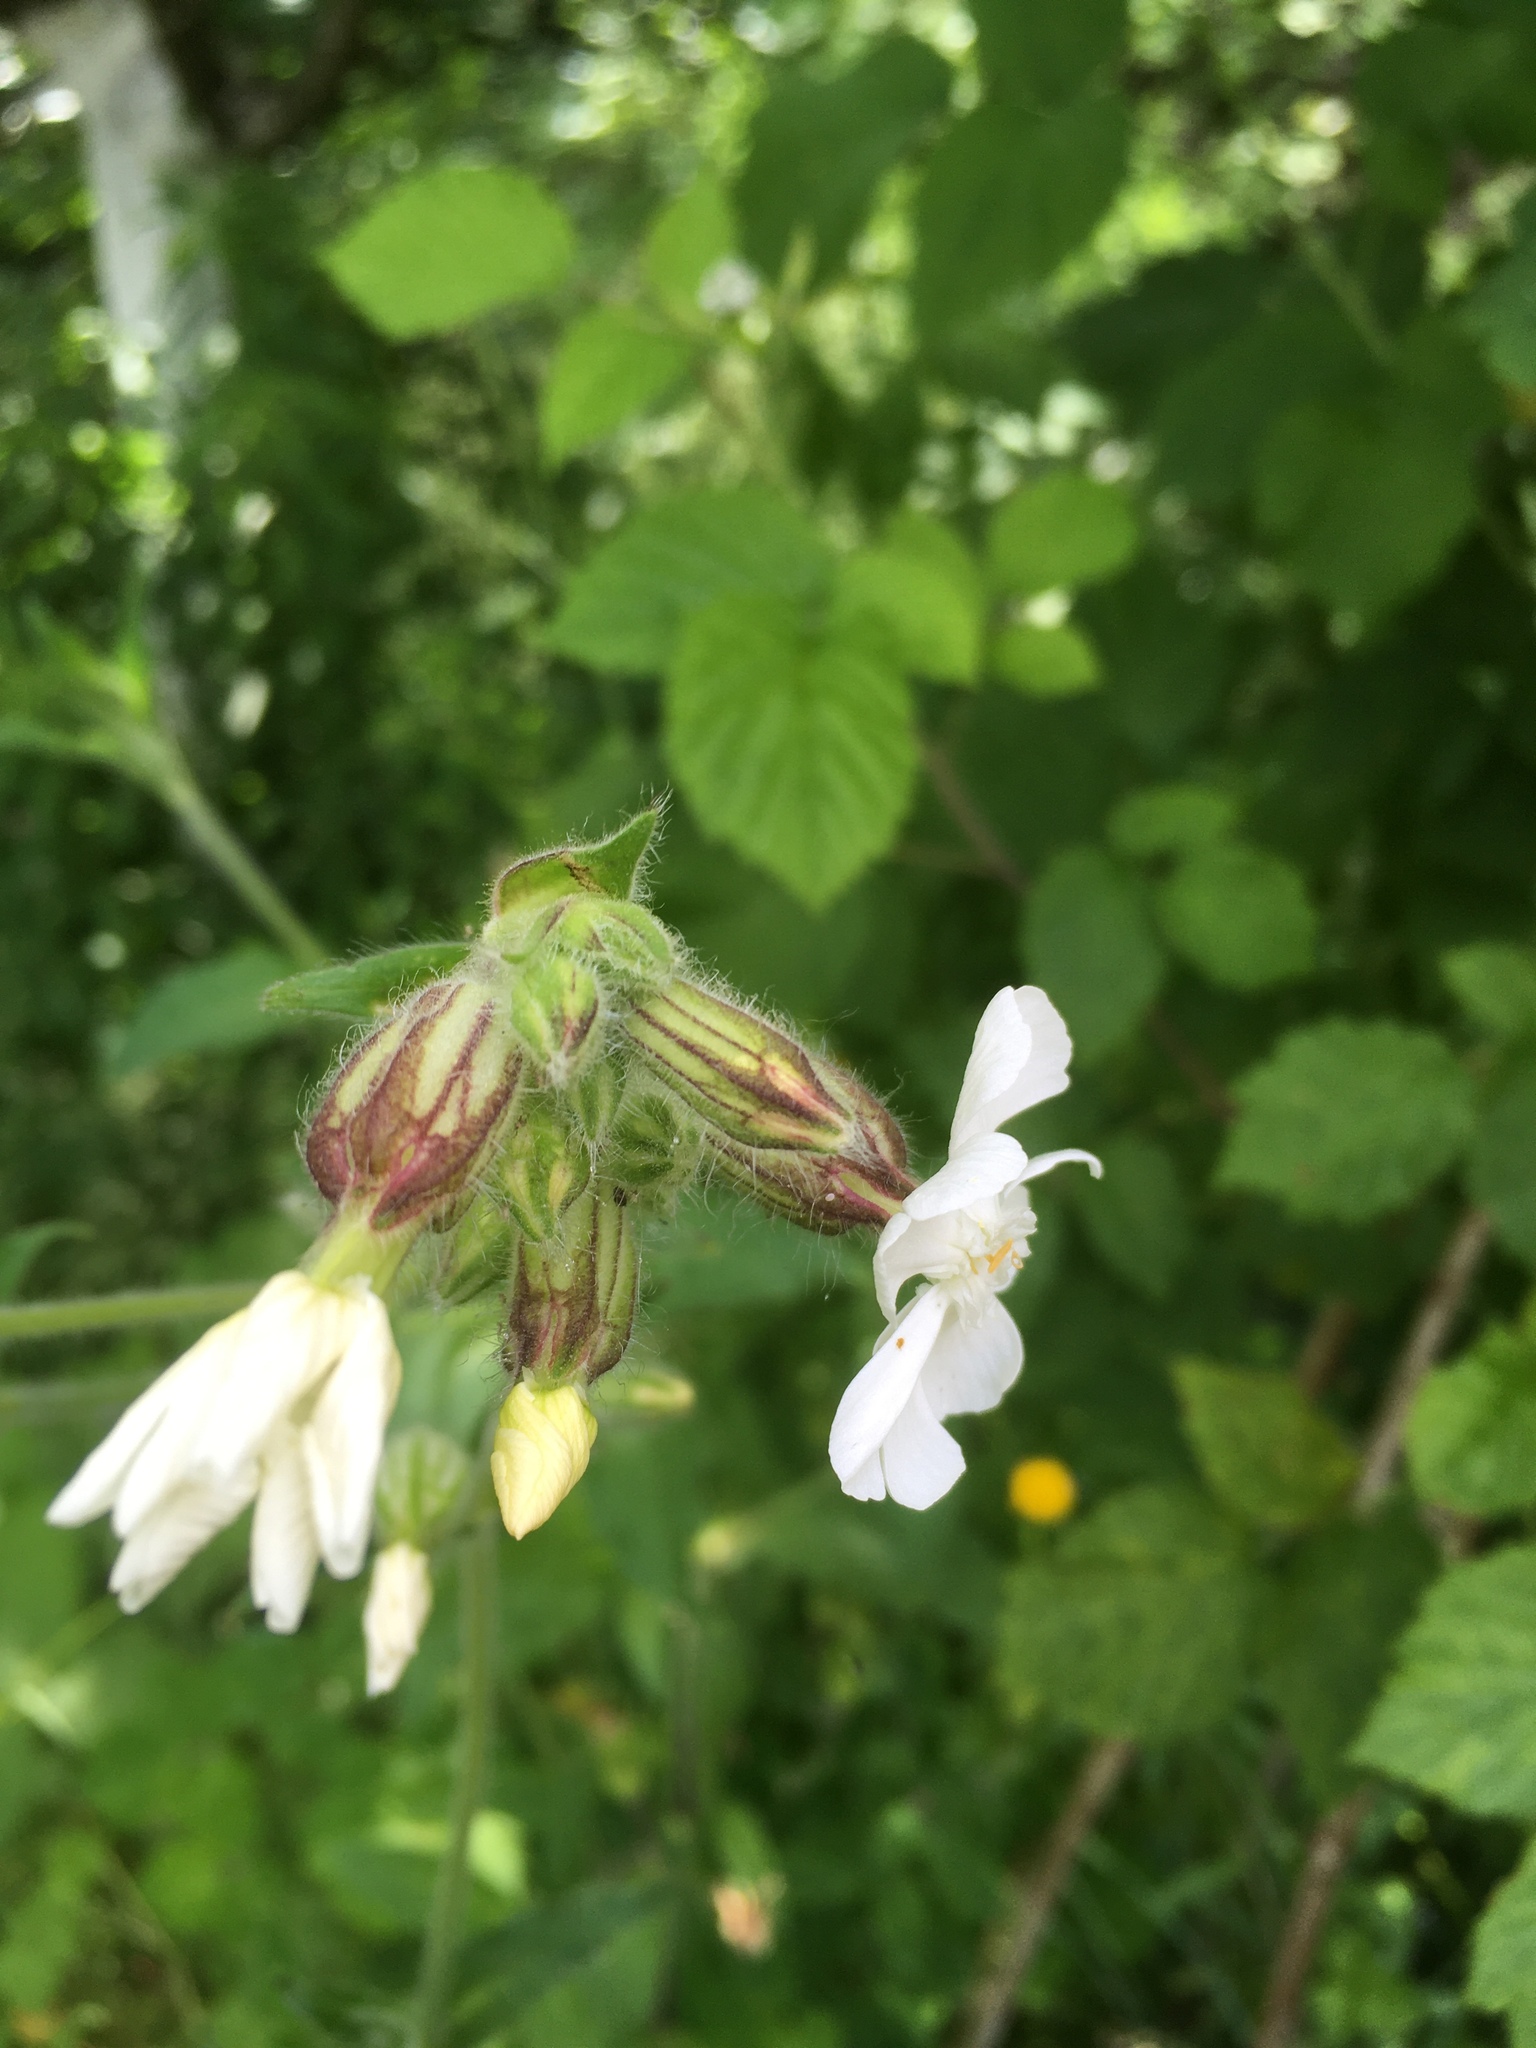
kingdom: Plantae
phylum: Tracheophyta
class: Magnoliopsida
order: Caryophyllales
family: Caryophyllaceae
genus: Silene
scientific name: Silene latifolia
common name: White campion
